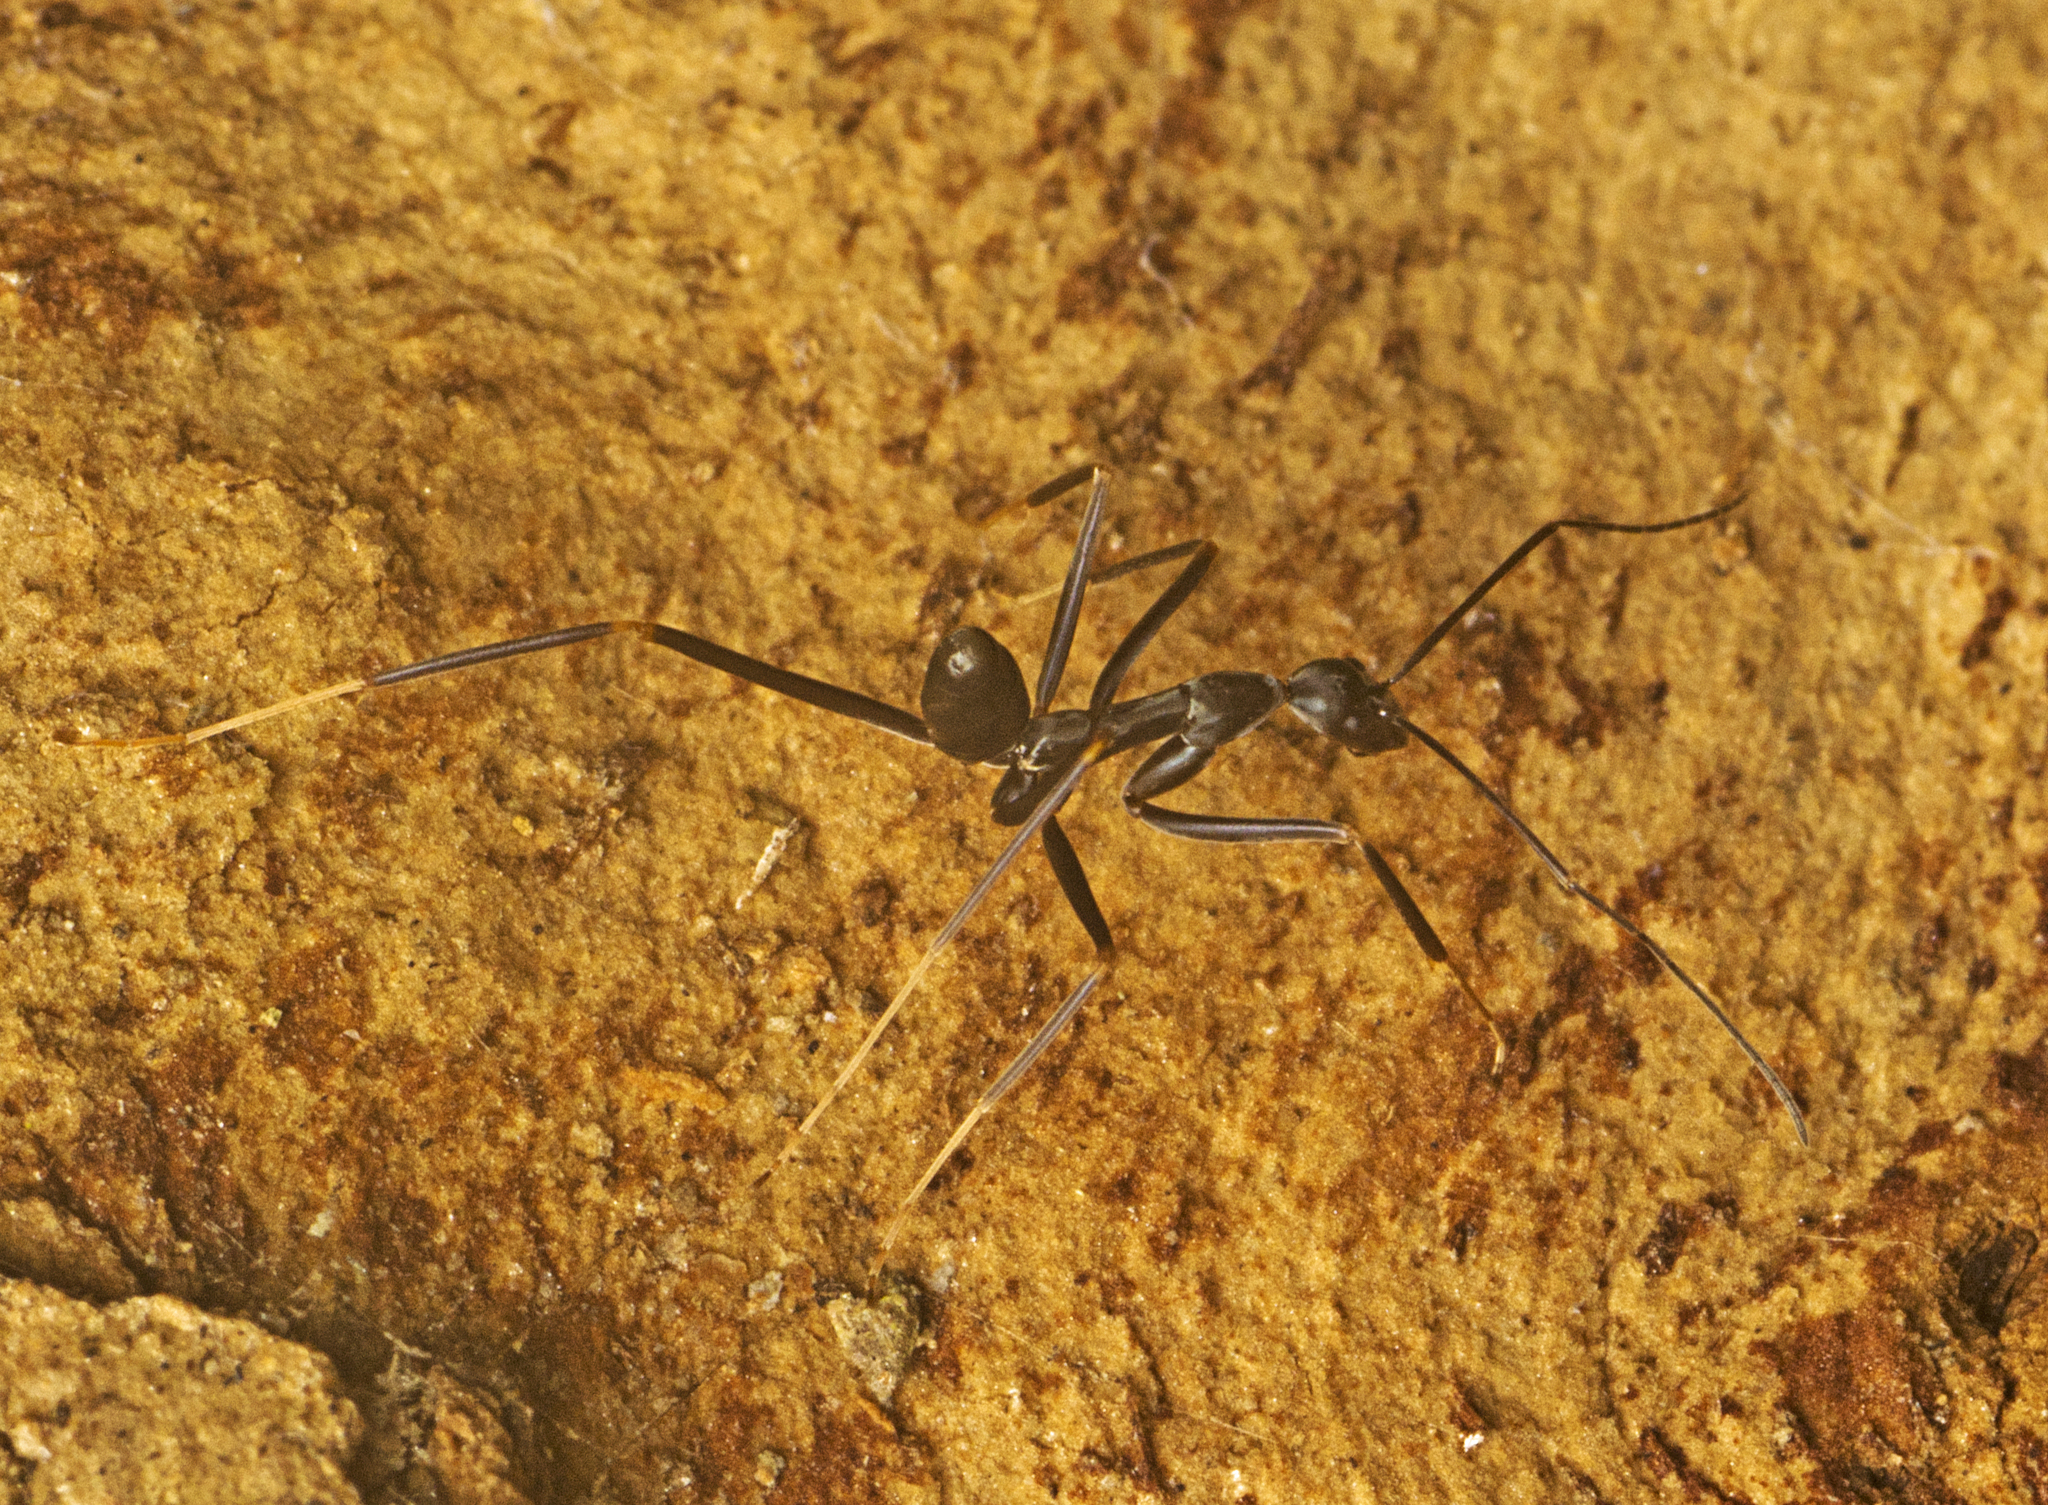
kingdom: Animalia
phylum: Arthropoda
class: Insecta
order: Hymenoptera
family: Formicidae
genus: Leptomyrmex
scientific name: Leptomyrmex mjobergi
